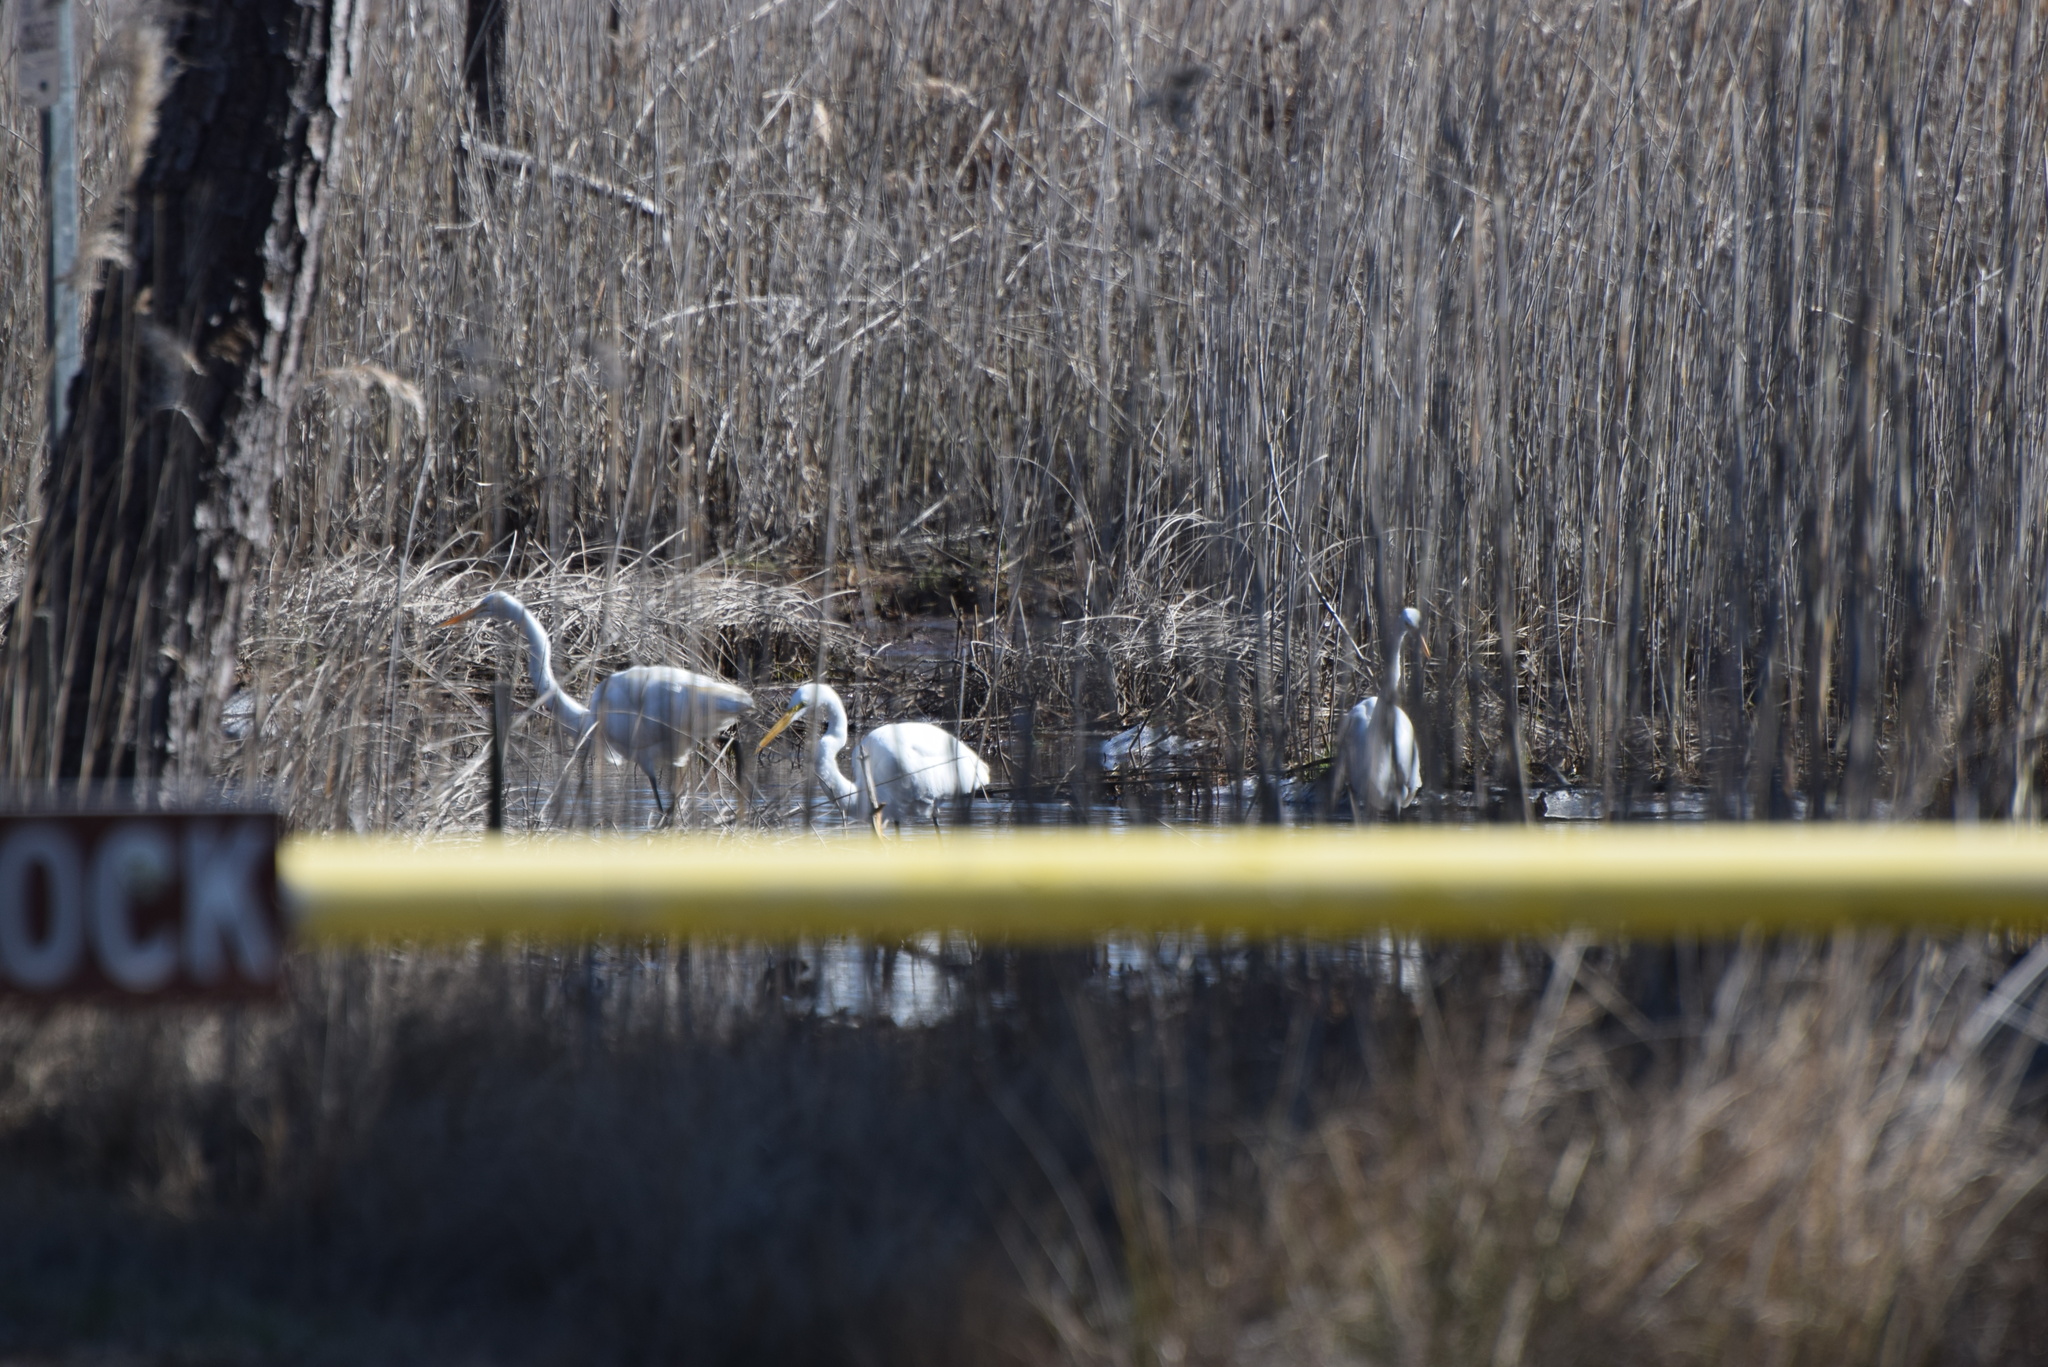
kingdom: Animalia
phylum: Chordata
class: Aves
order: Pelecaniformes
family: Ardeidae
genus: Ardea
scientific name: Ardea alba
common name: Great egret
